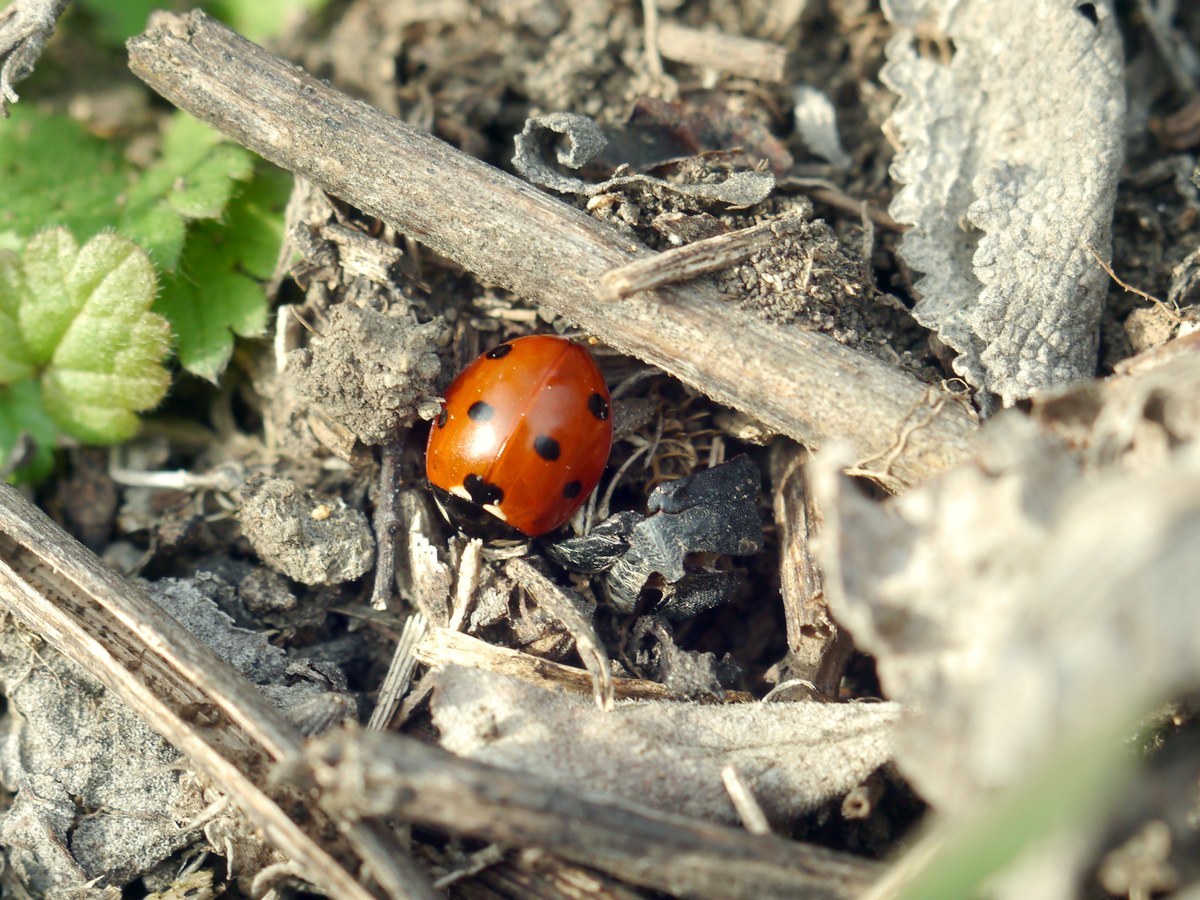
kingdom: Animalia
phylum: Arthropoda
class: Insecta
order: Coleoptera
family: Coccinellidae
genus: Coccinella
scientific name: Coccinella septempunctata
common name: Sevenspotted lady beetle
